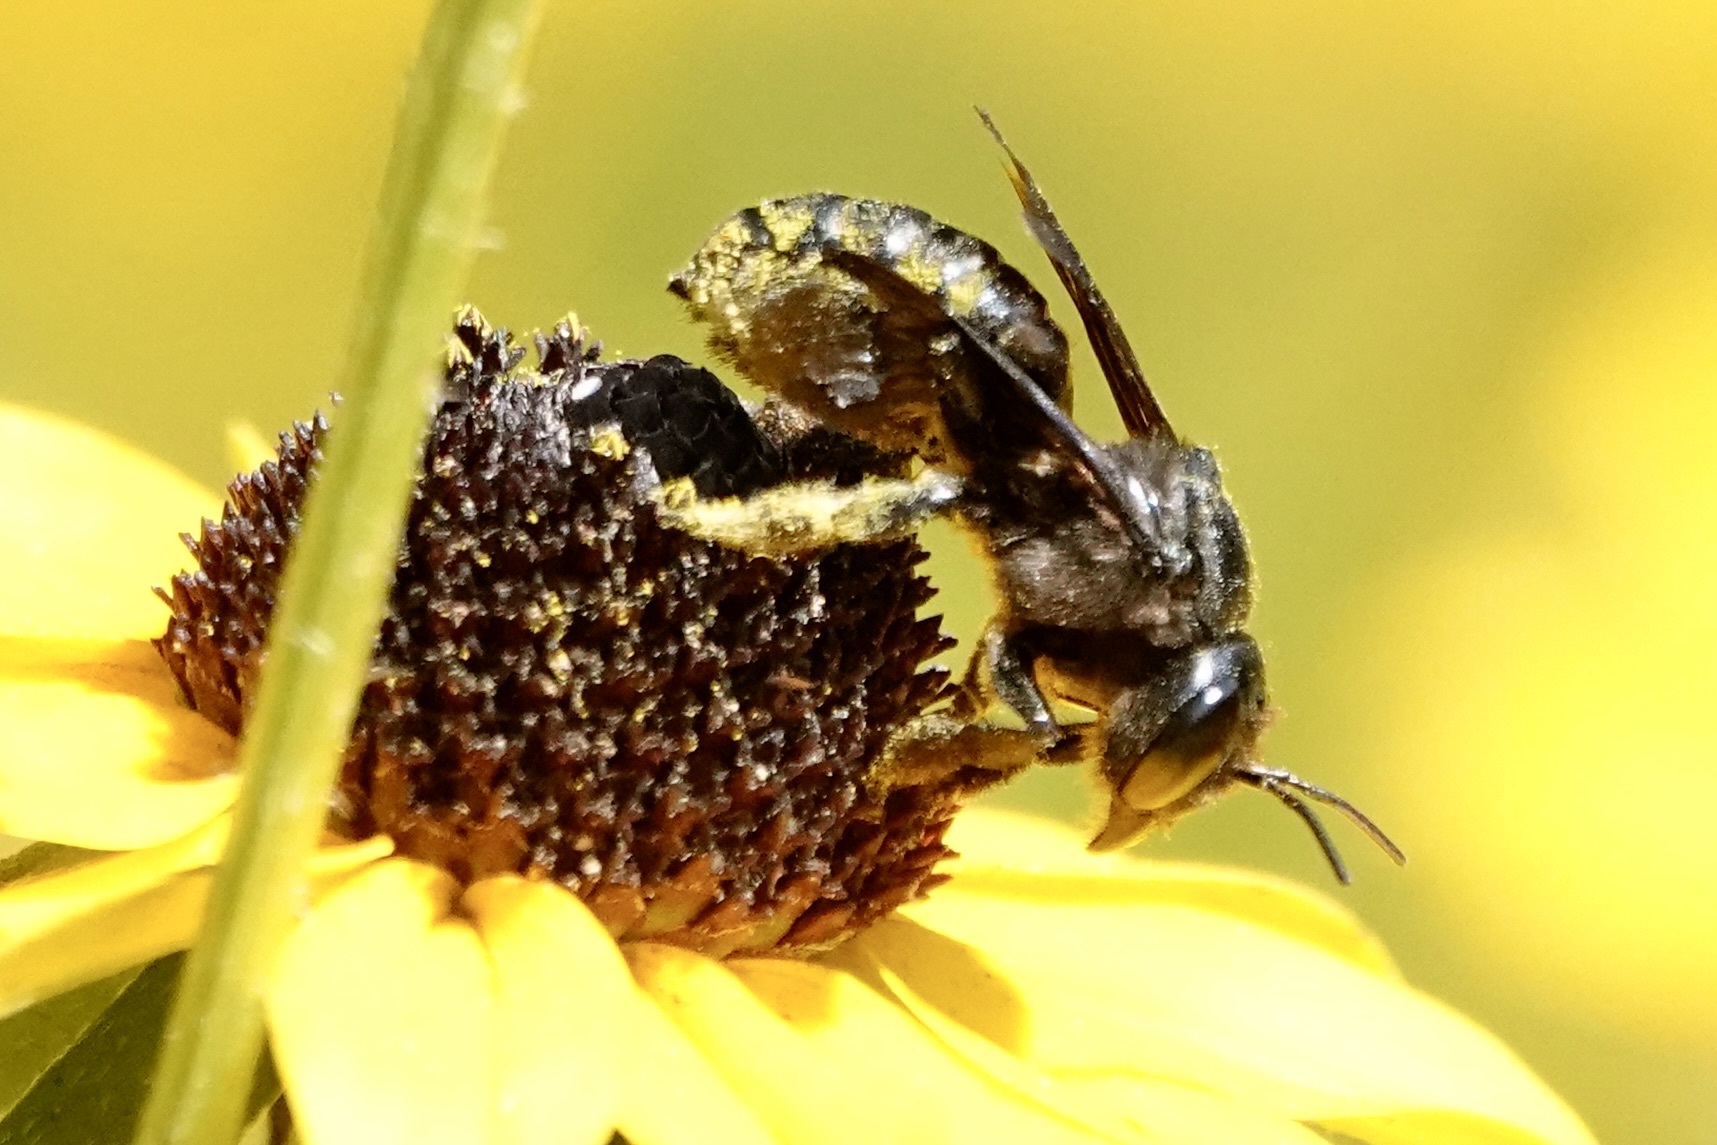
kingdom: Animalia
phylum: Arthropoda
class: Insecta
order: Hymenoptera
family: Megachilidae
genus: Megachile
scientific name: Megachile xylocopoides
